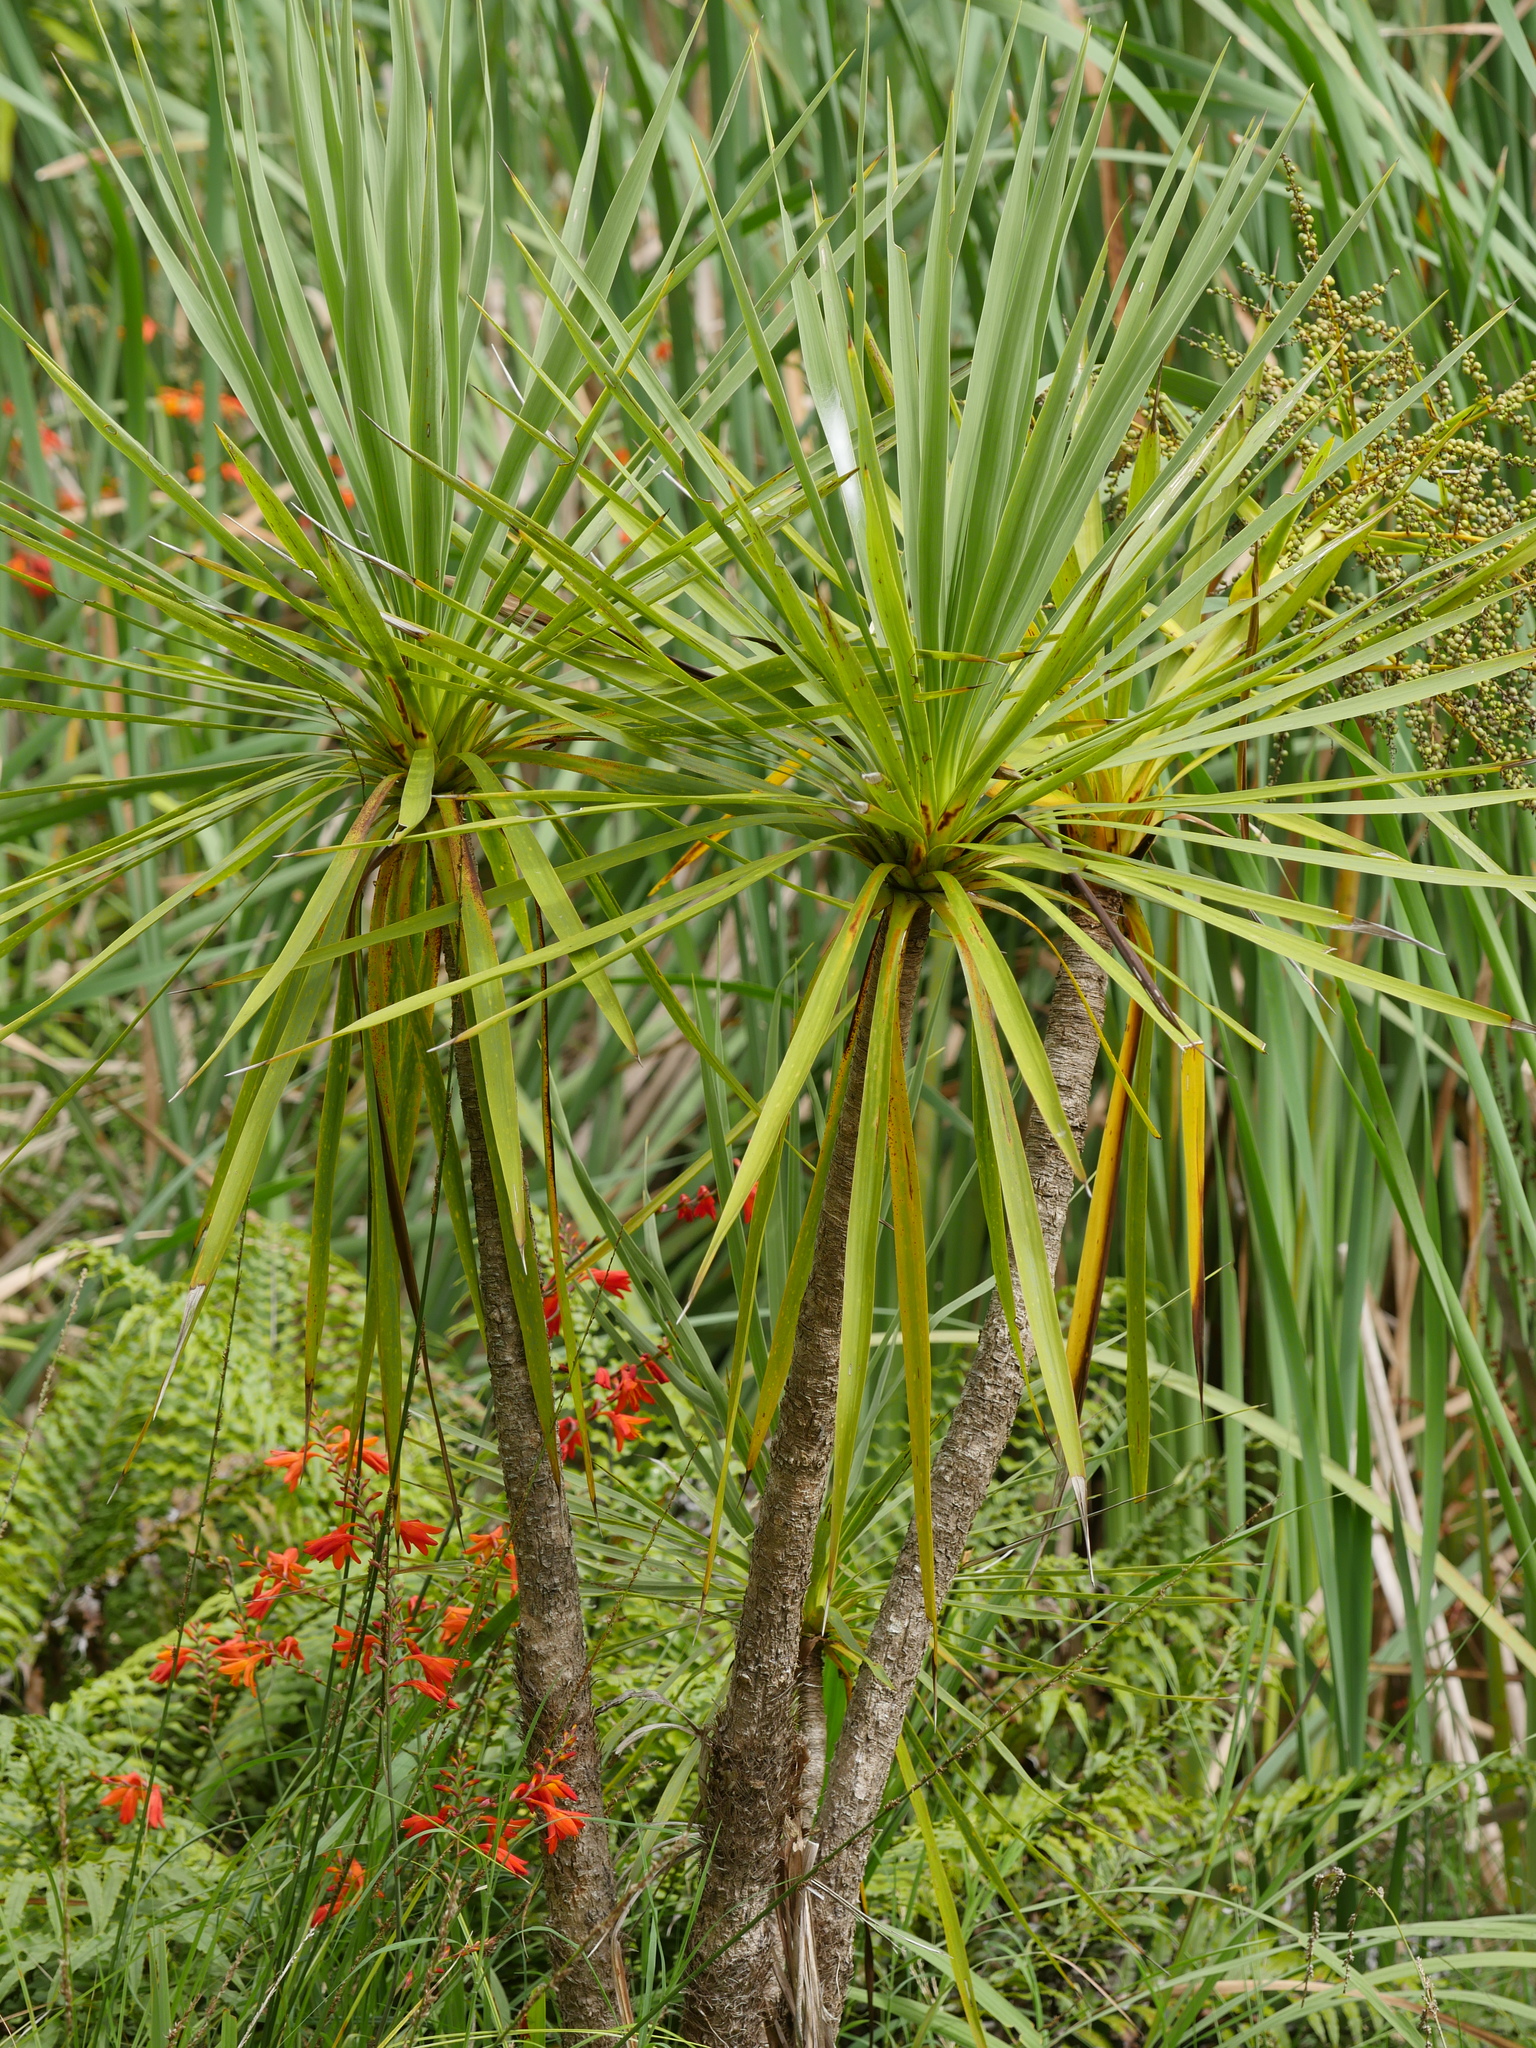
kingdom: Plantae
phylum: Tracheophyta
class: Liliopsida
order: Asparagales
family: Asparagaceae
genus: Cordyline
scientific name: Cordyline australis
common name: Cabbage-palm
